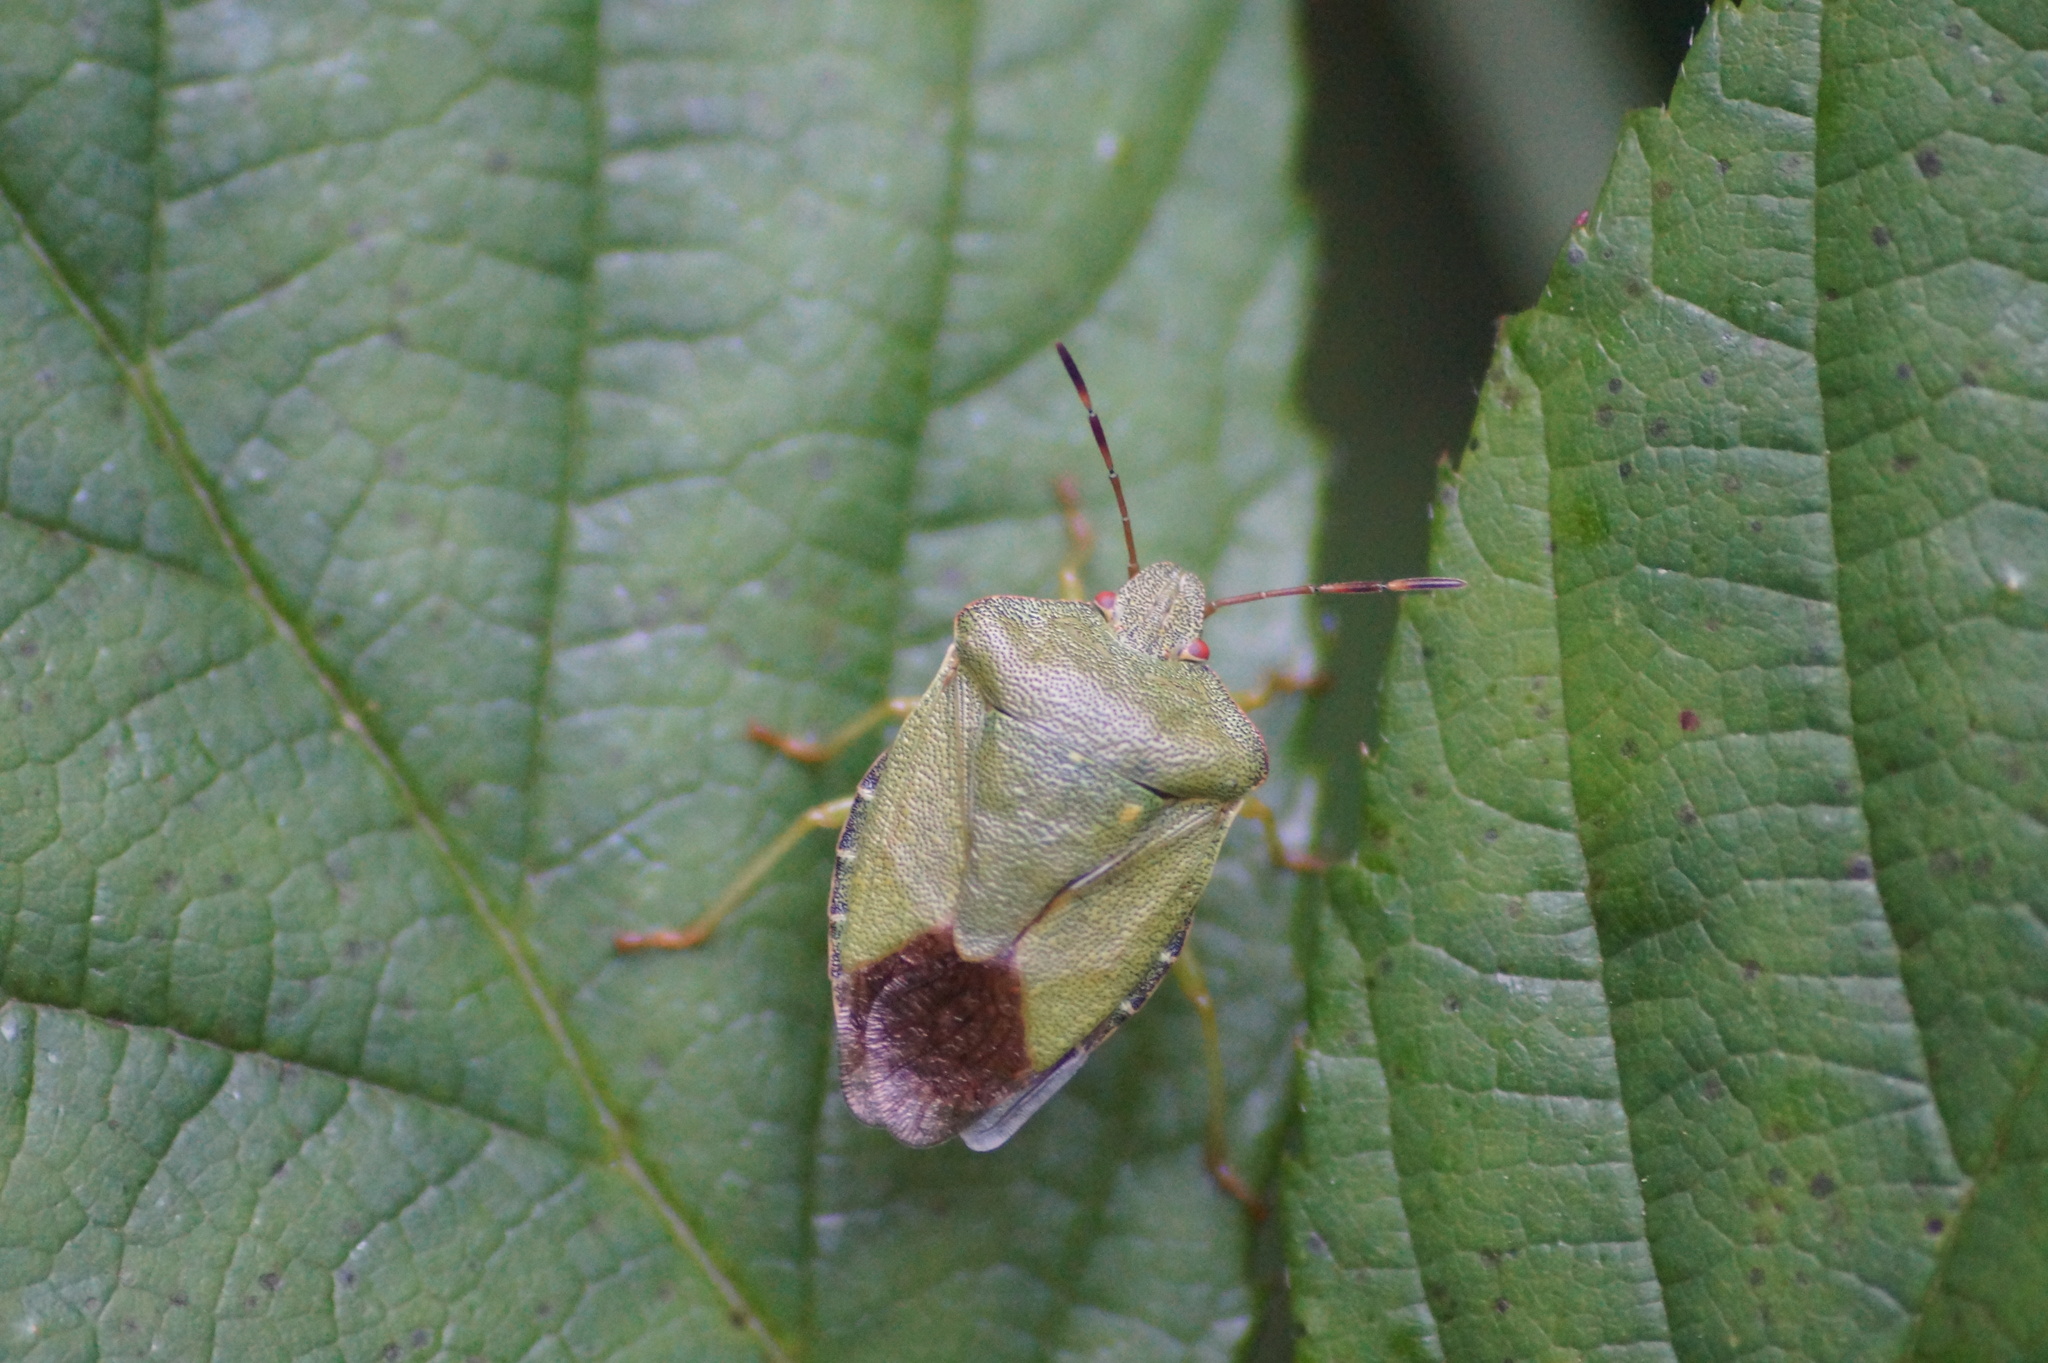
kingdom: Animalia
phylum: Arthropoda
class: Insecta
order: Hemiptera
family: Pentatomidae
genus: Palomena
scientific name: Palomena prasina
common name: Green shieldbug
